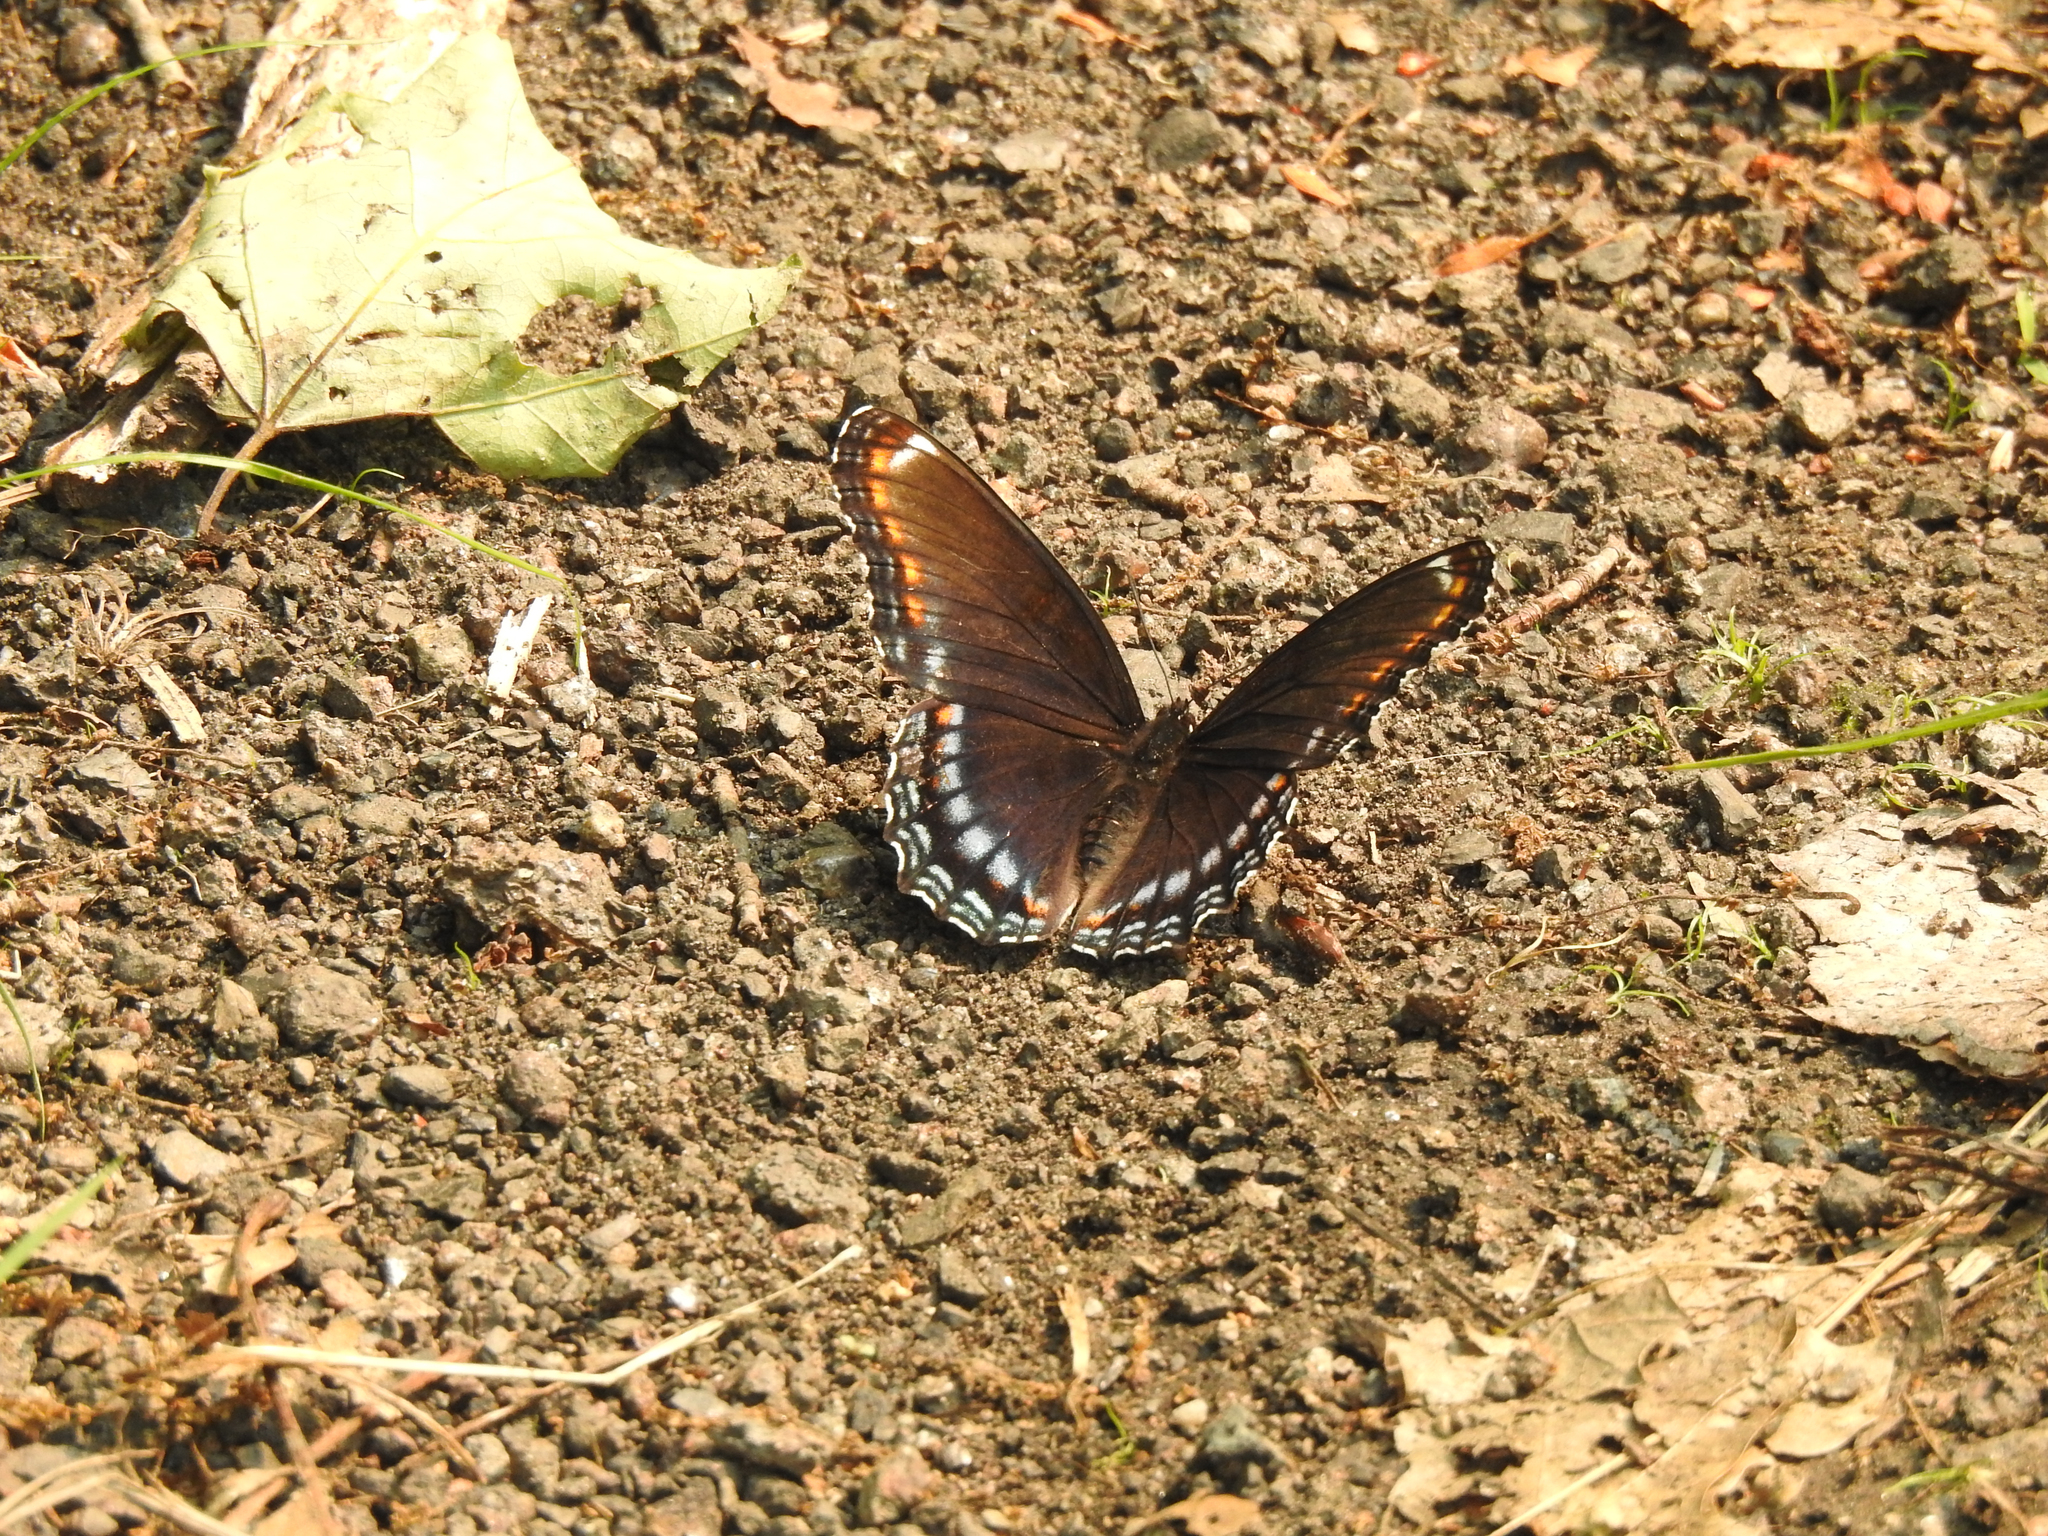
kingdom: Animalia
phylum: Arthropoda
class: Insecta
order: Lepidoptera
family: Nymphalidae
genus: Limenitis
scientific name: Limenitis arthemis
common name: Red-spotted admiral
